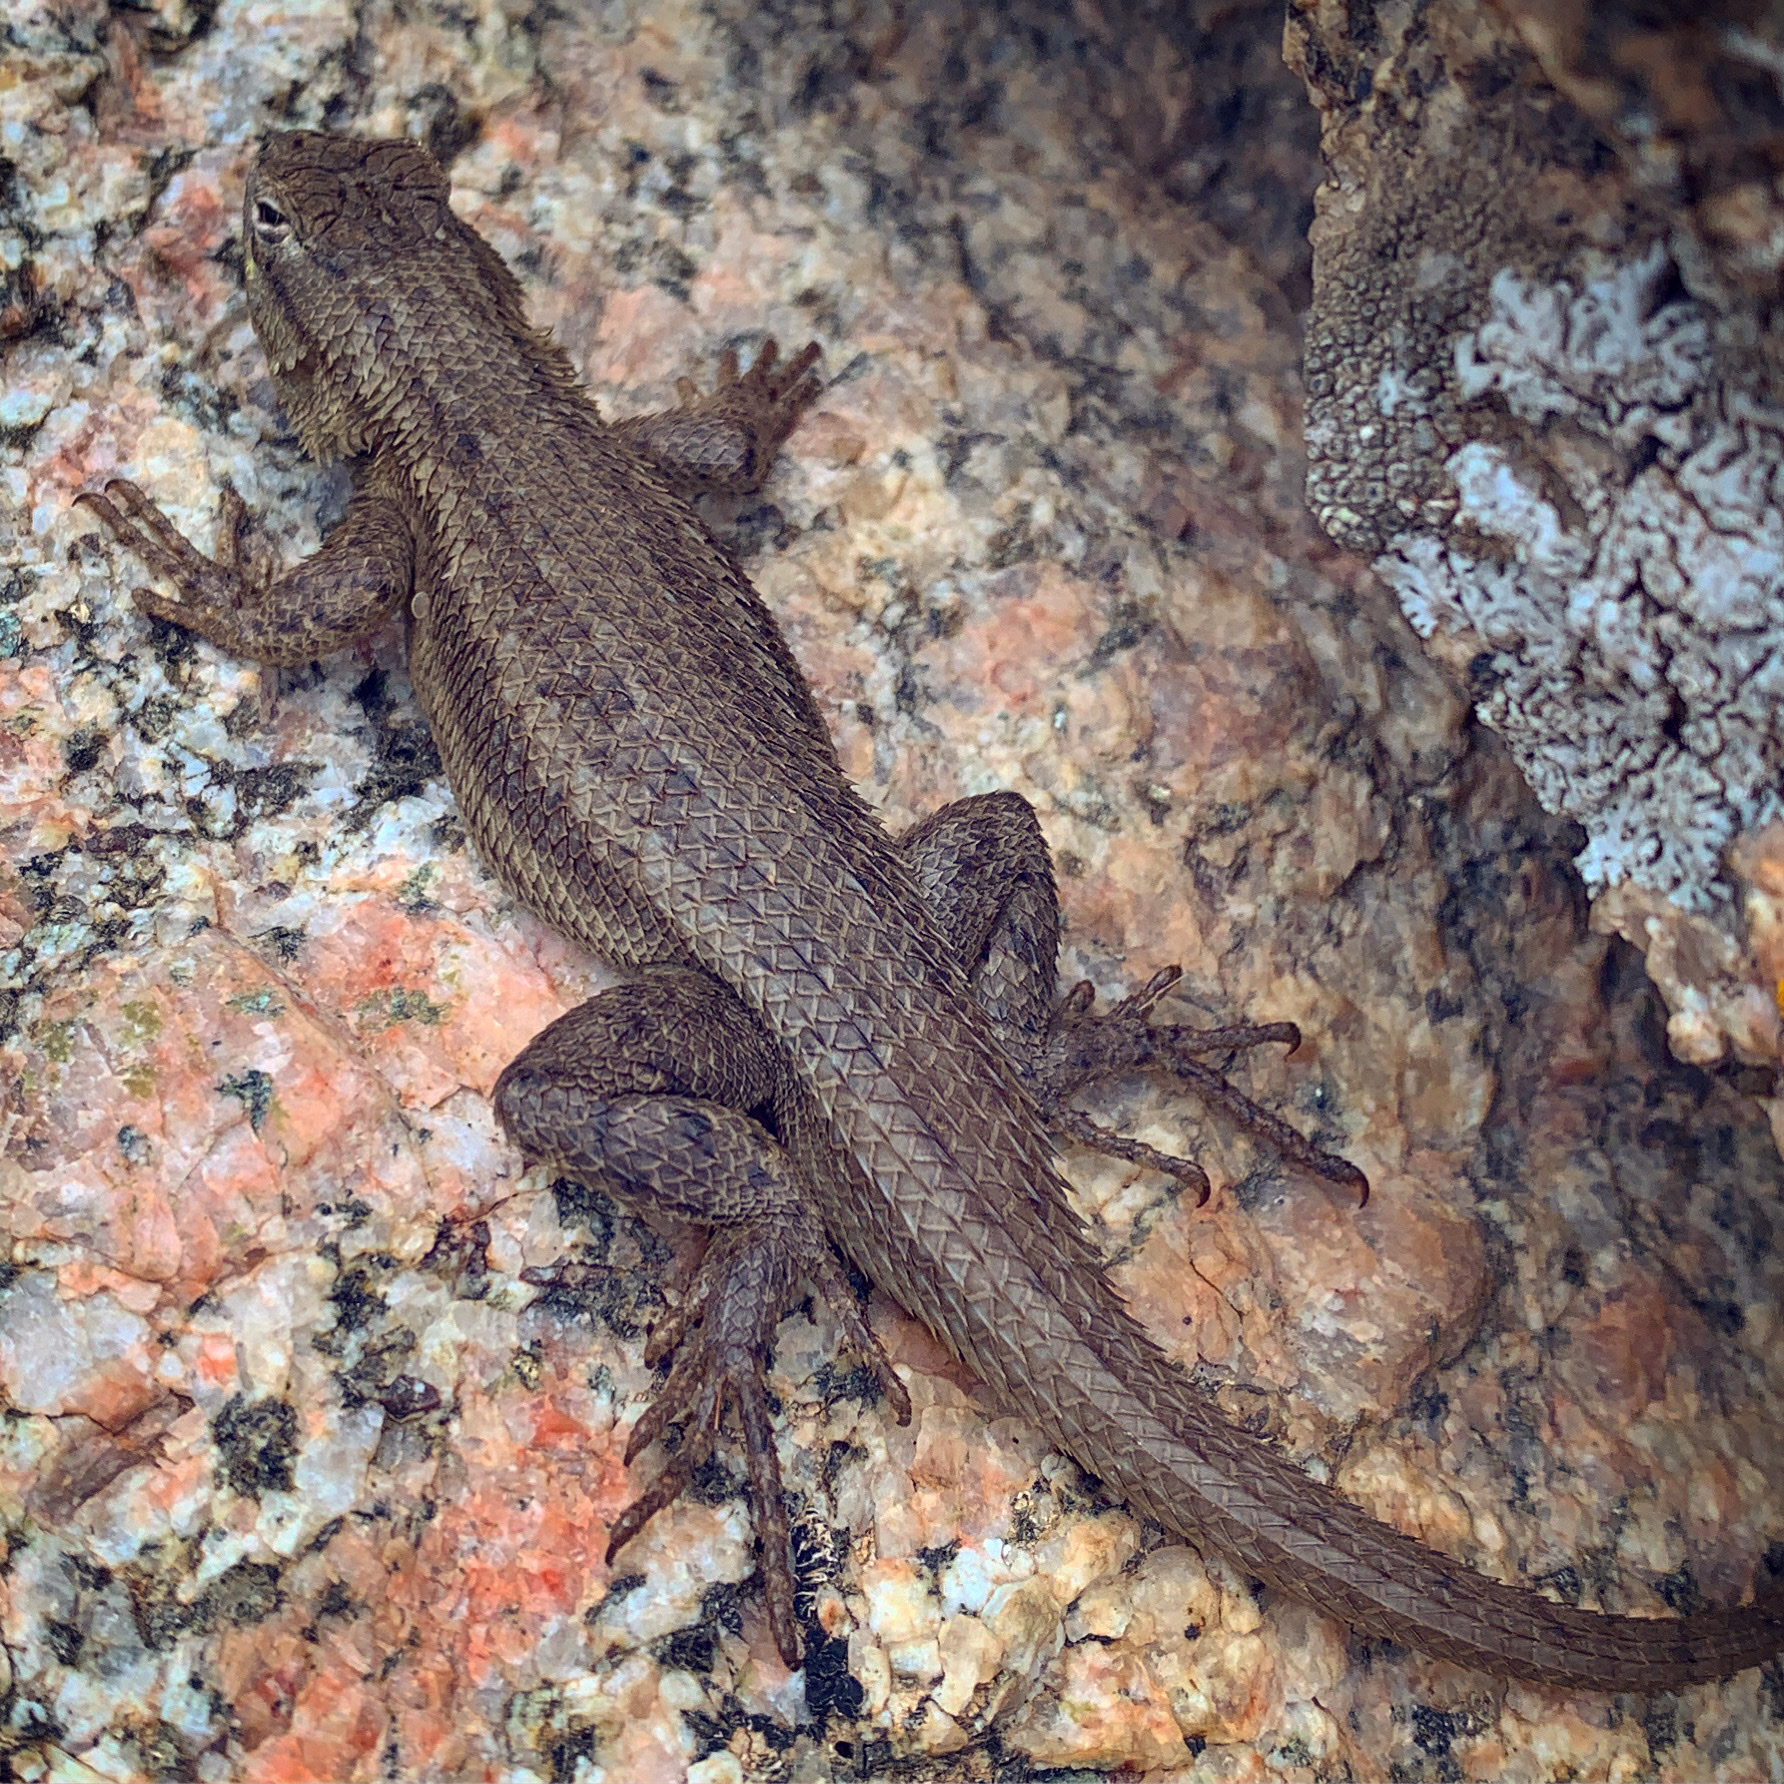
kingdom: Animalia
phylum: Chordata
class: Squamata
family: Phrynosomatidae
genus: Sceloporus
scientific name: Sceloporus cowlesi
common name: White sands prairie lizard
